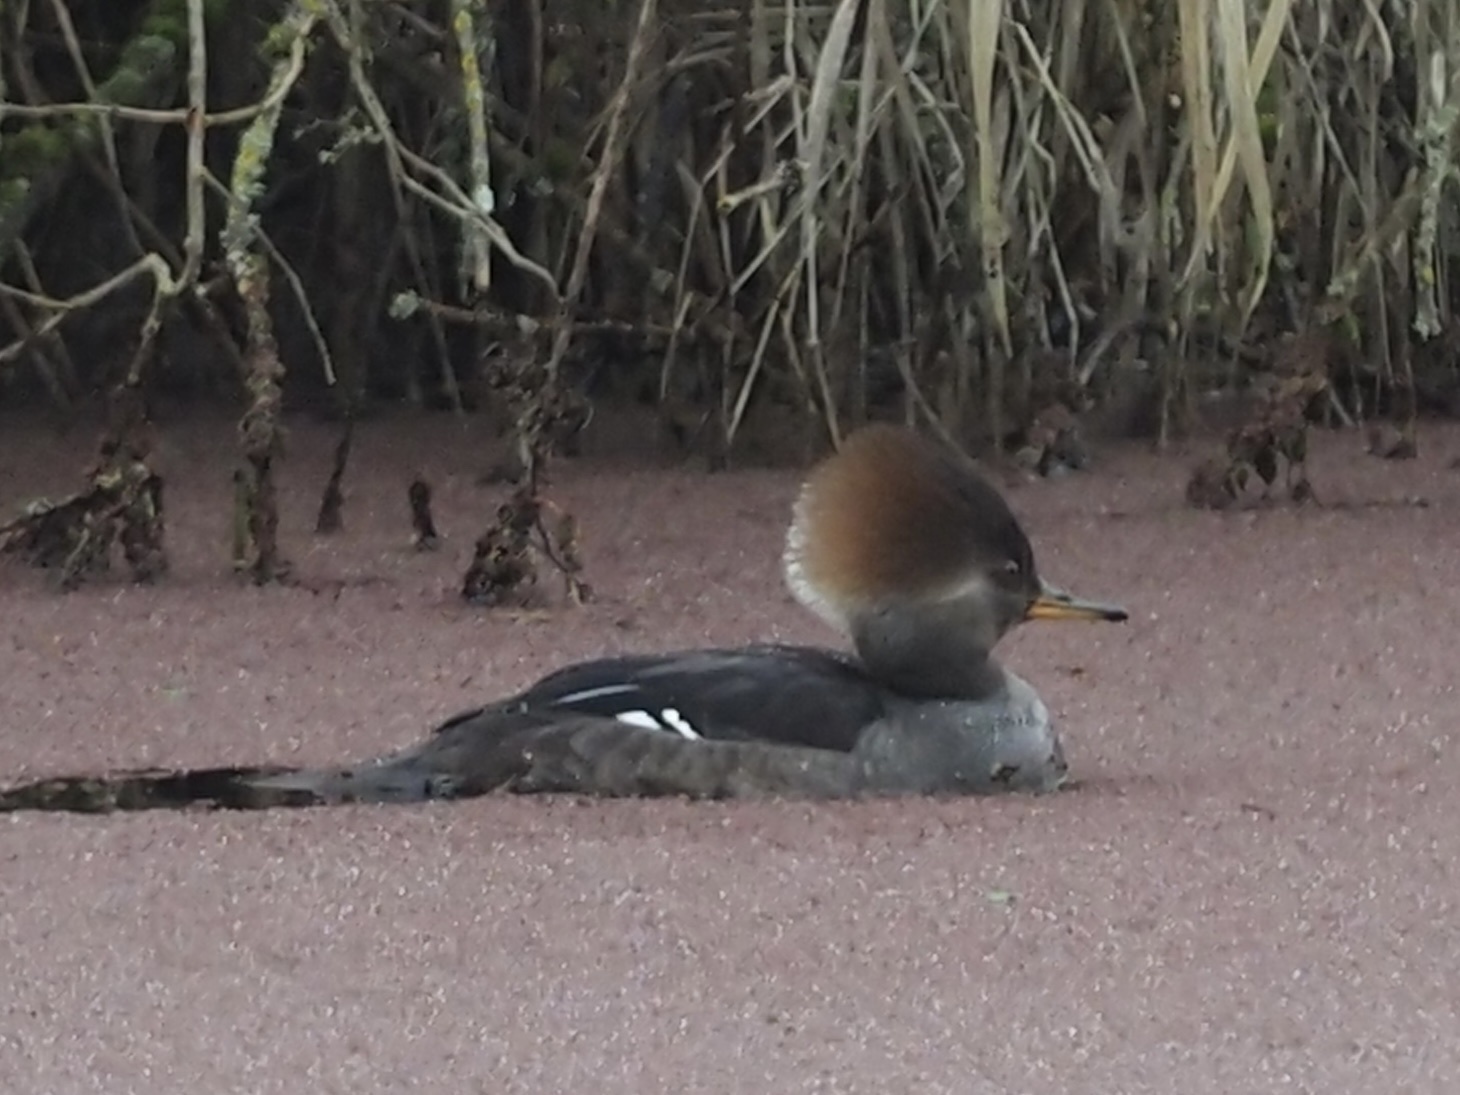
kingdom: Animalia
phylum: Chordata
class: Aves
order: Anseriformes
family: Anatidae
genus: Lophodytes
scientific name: Lophodytes cucullatus
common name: Hooded merganser
